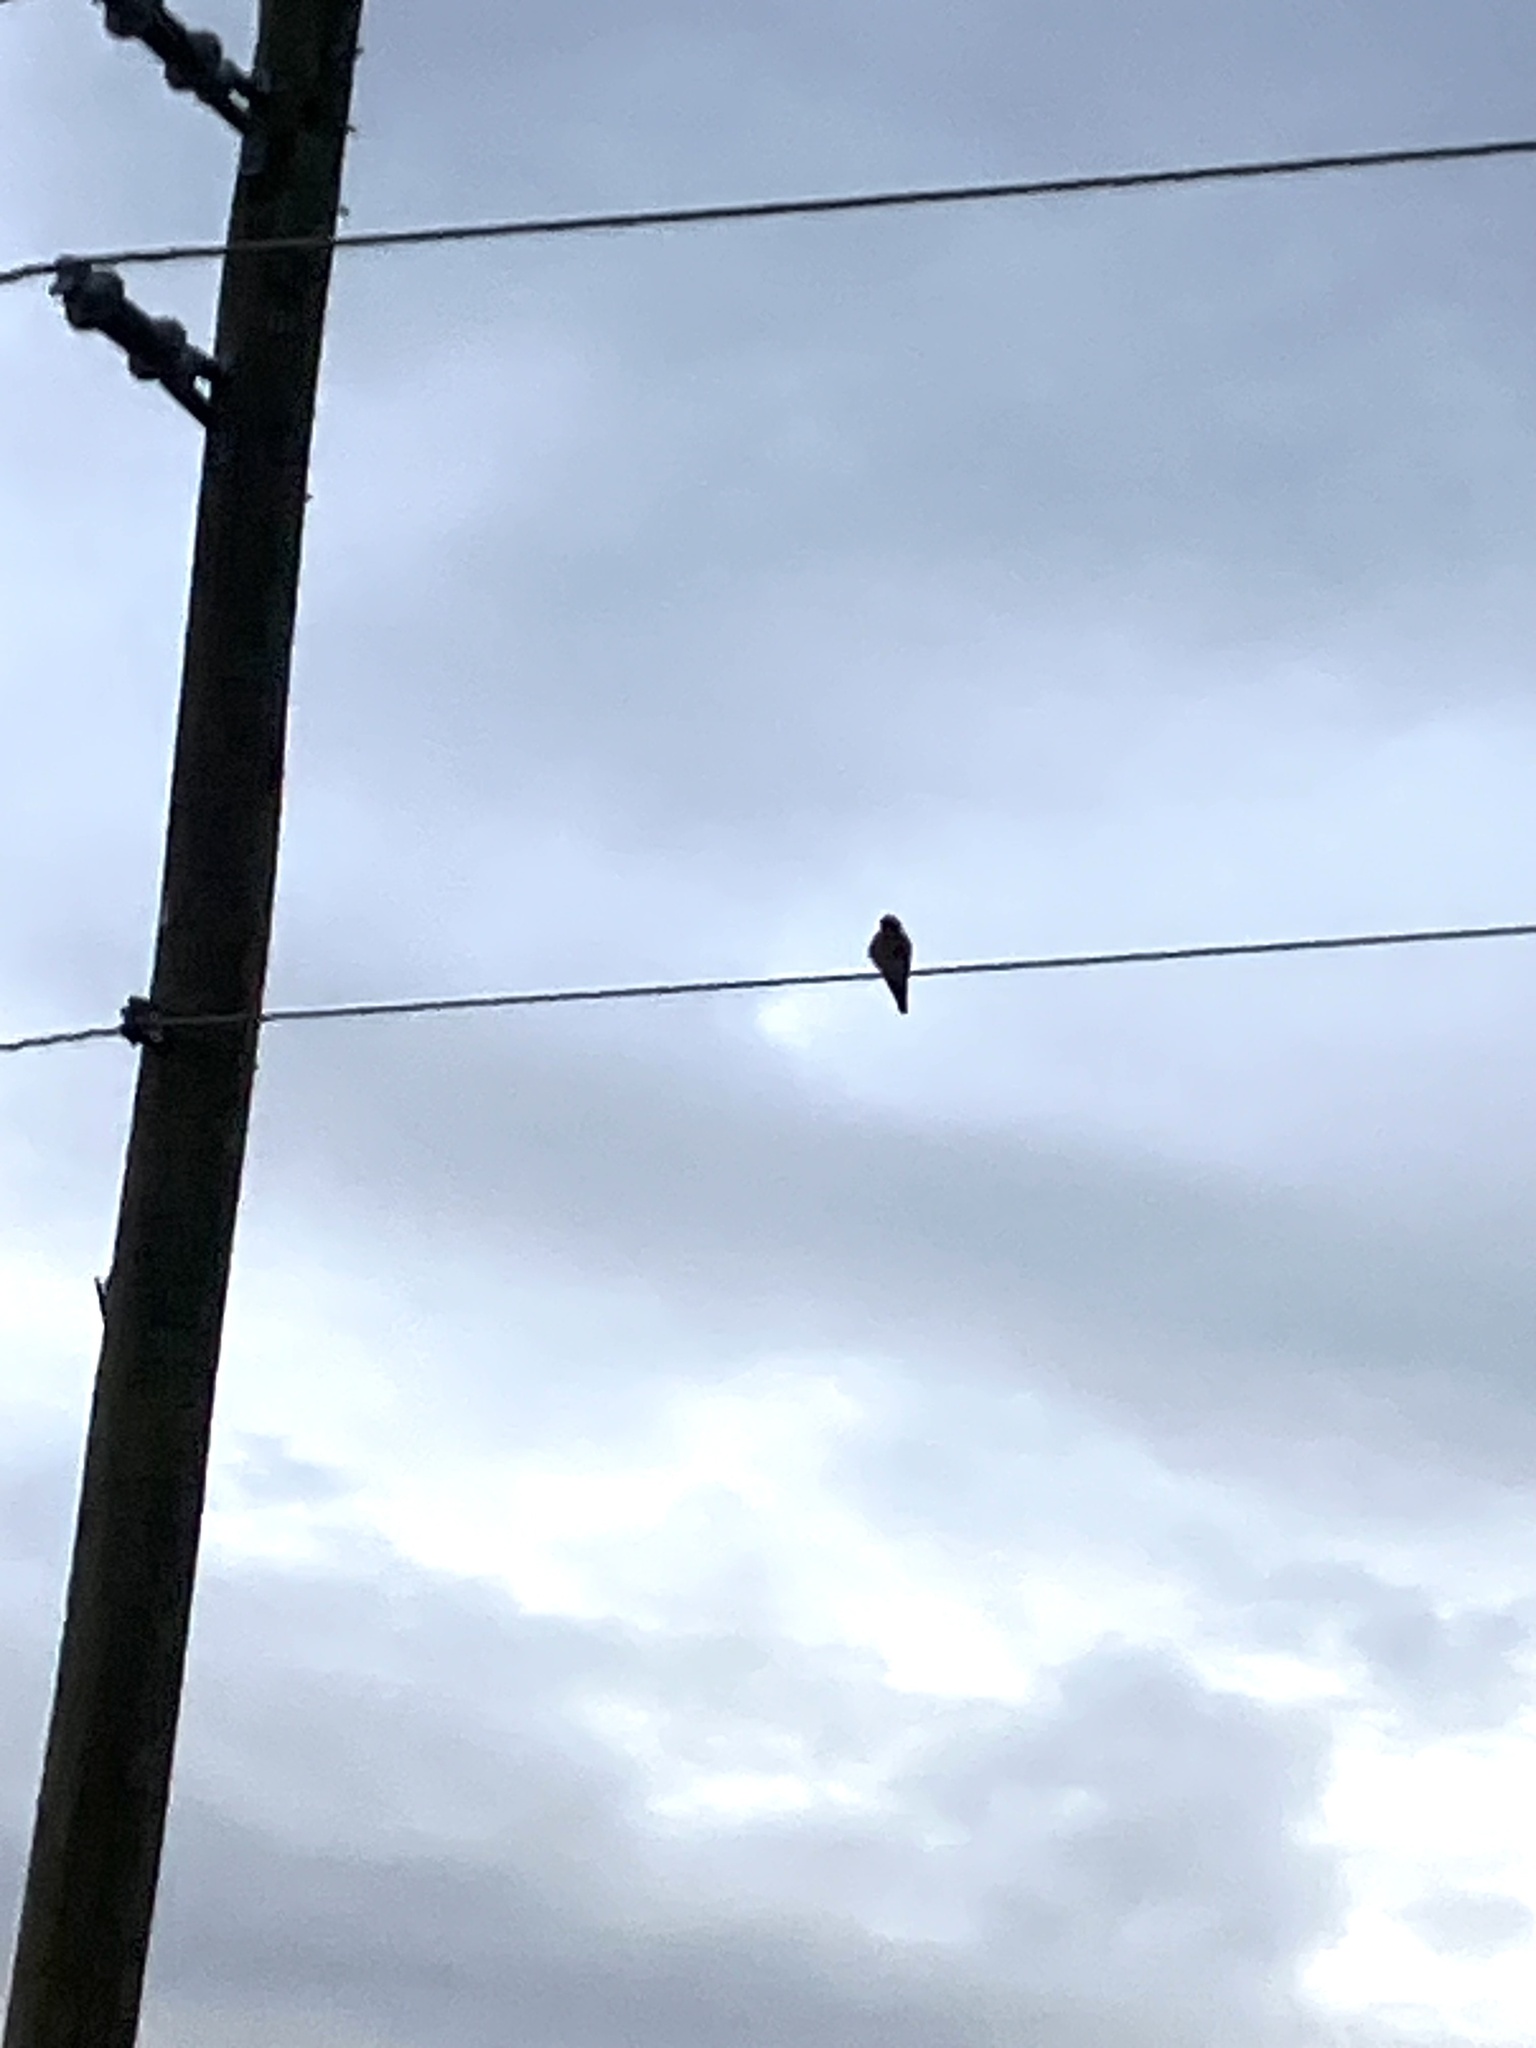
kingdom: Animalia
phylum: Chordata
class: Aves
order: Falconiformes
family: Falconidae
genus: Falco
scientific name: Falco sparverius
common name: American kestrel
